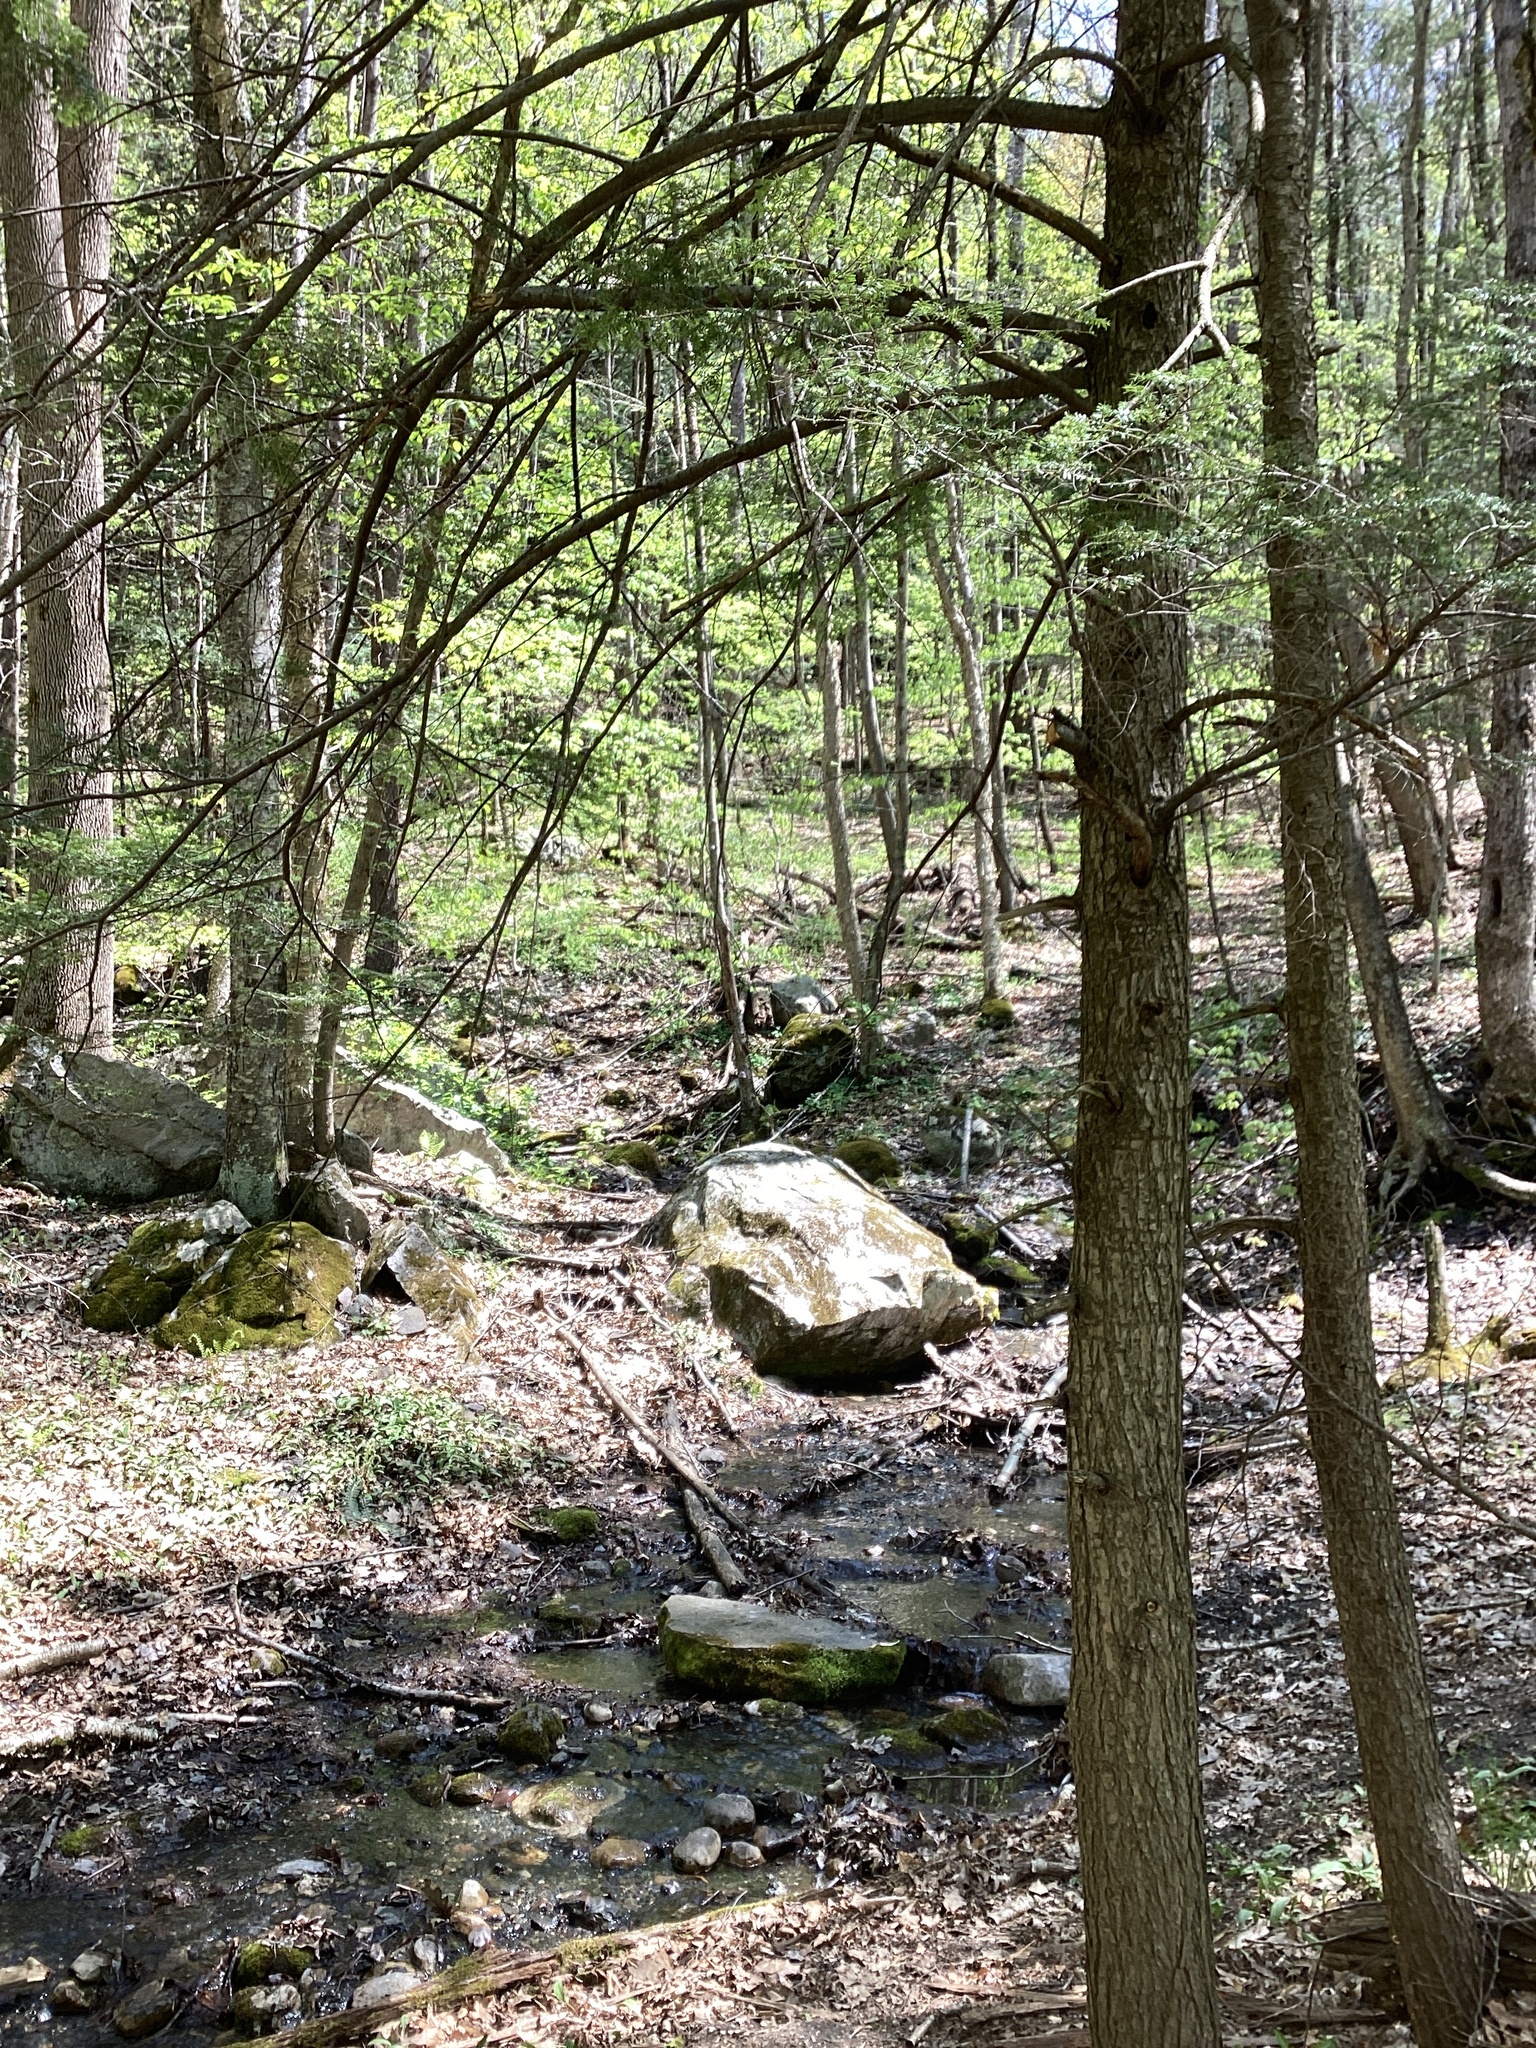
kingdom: Plantae
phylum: Tracheophyta
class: Pinopsida
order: Pinales
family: Pinaceae
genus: Tsuga
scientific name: Tsuga canadensis
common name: Eastern hemlock
